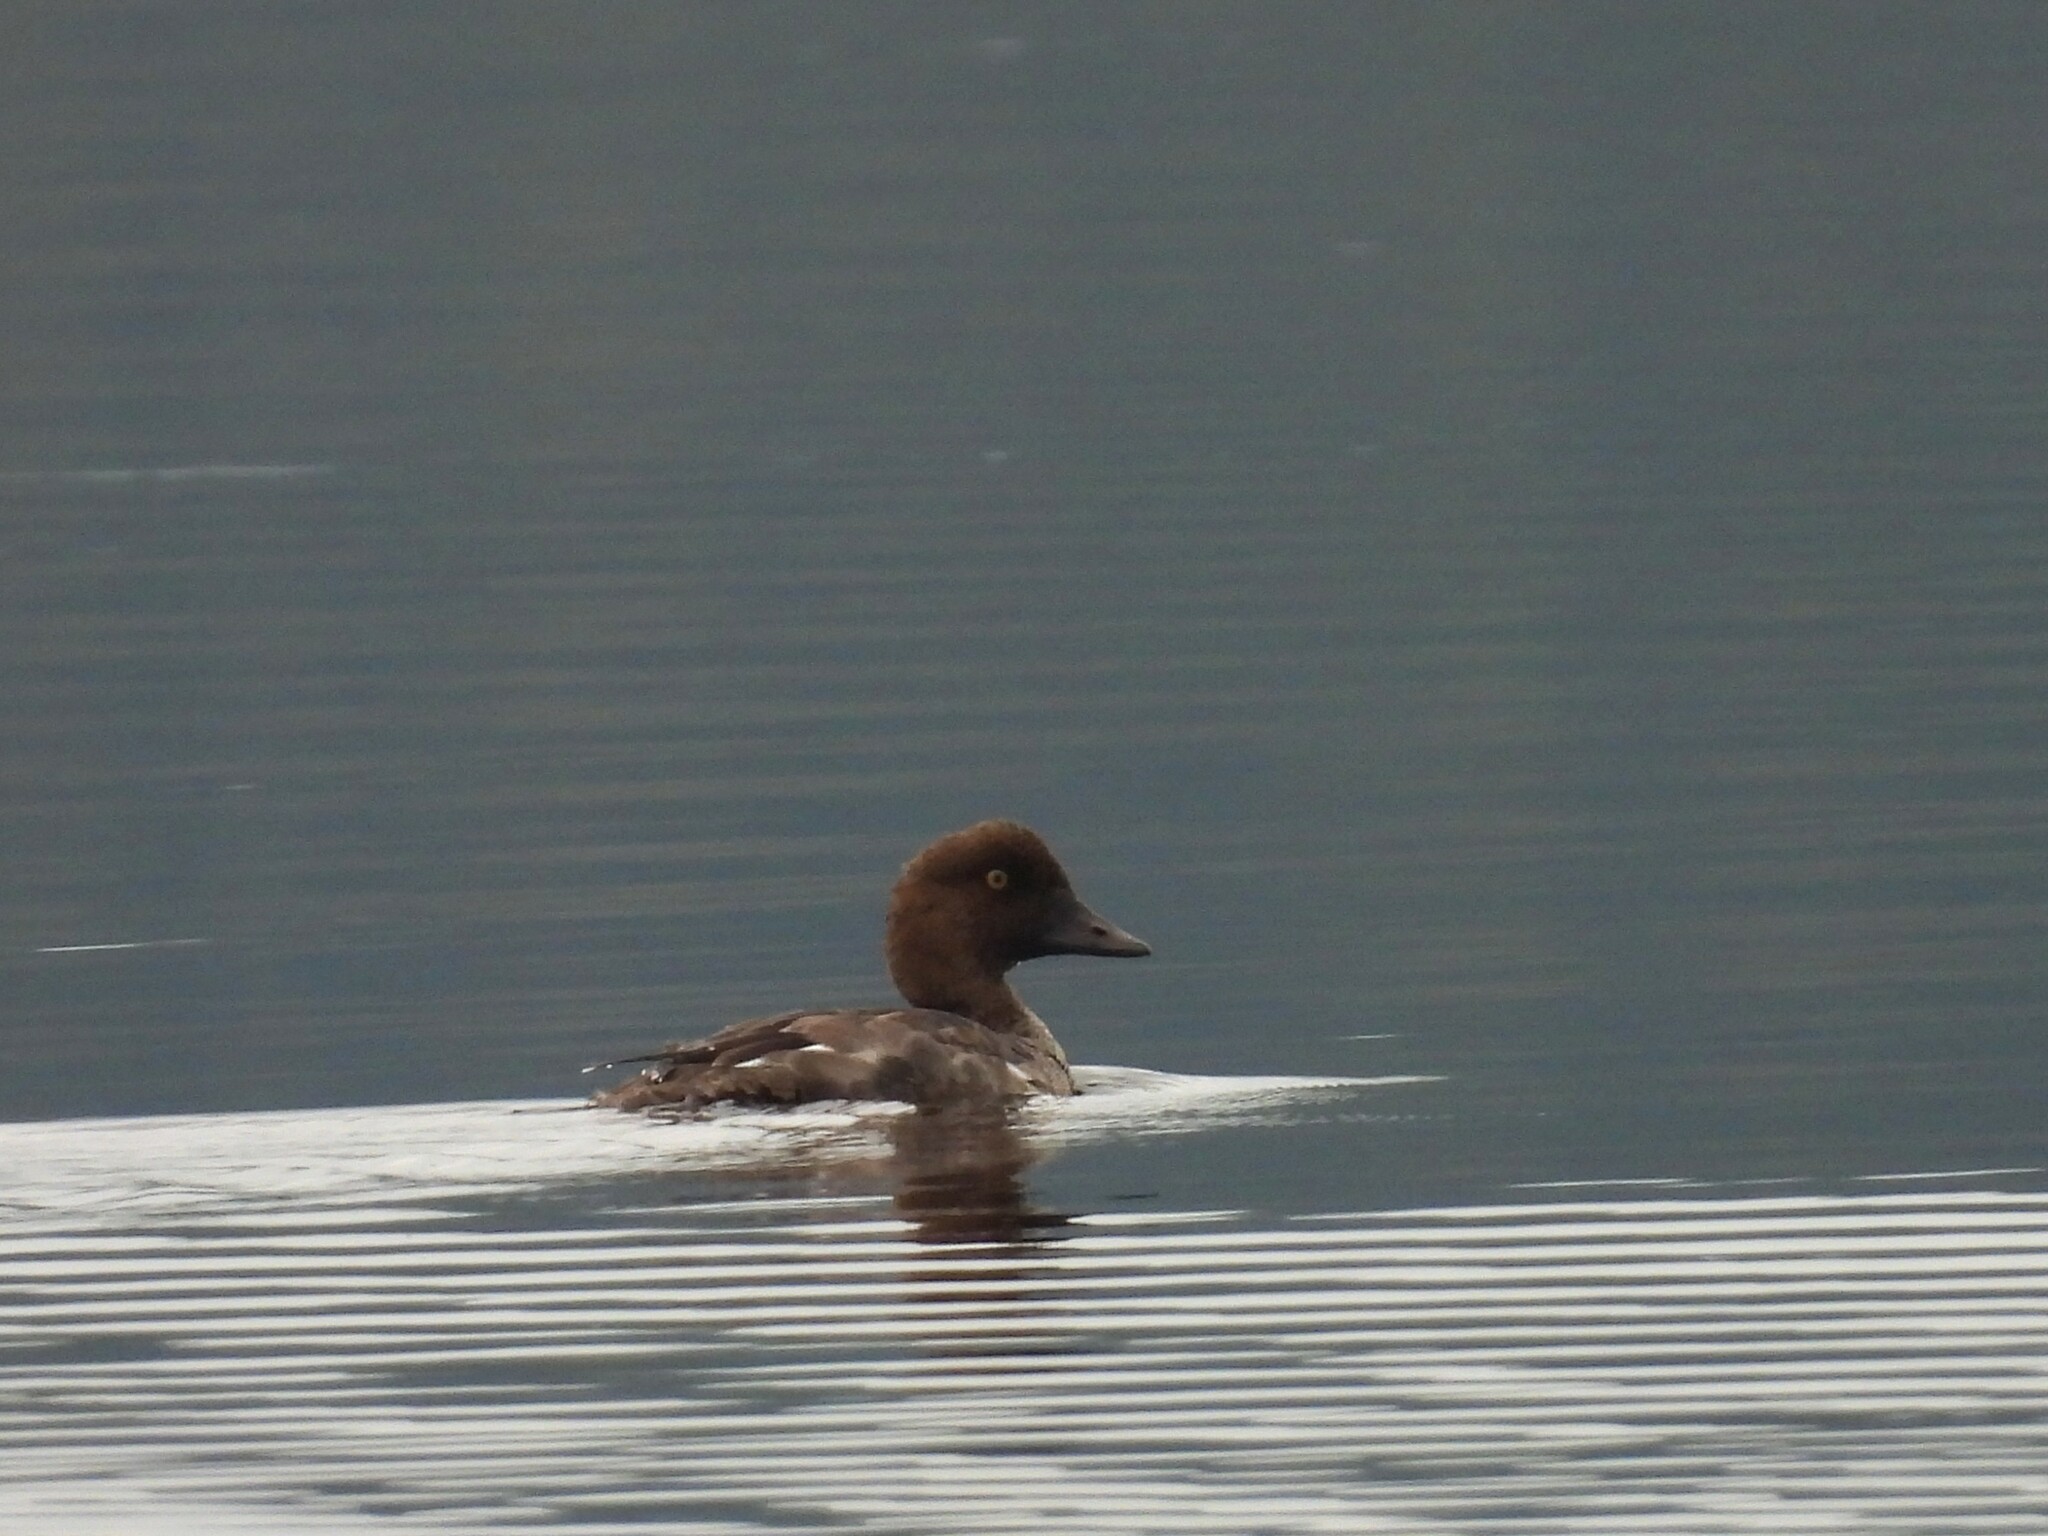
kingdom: Animalia
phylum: Chordata
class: Aves
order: Anseriformes
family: Anatidae
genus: Bucephala
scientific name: Bucephala clangula
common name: Common goldeneye
